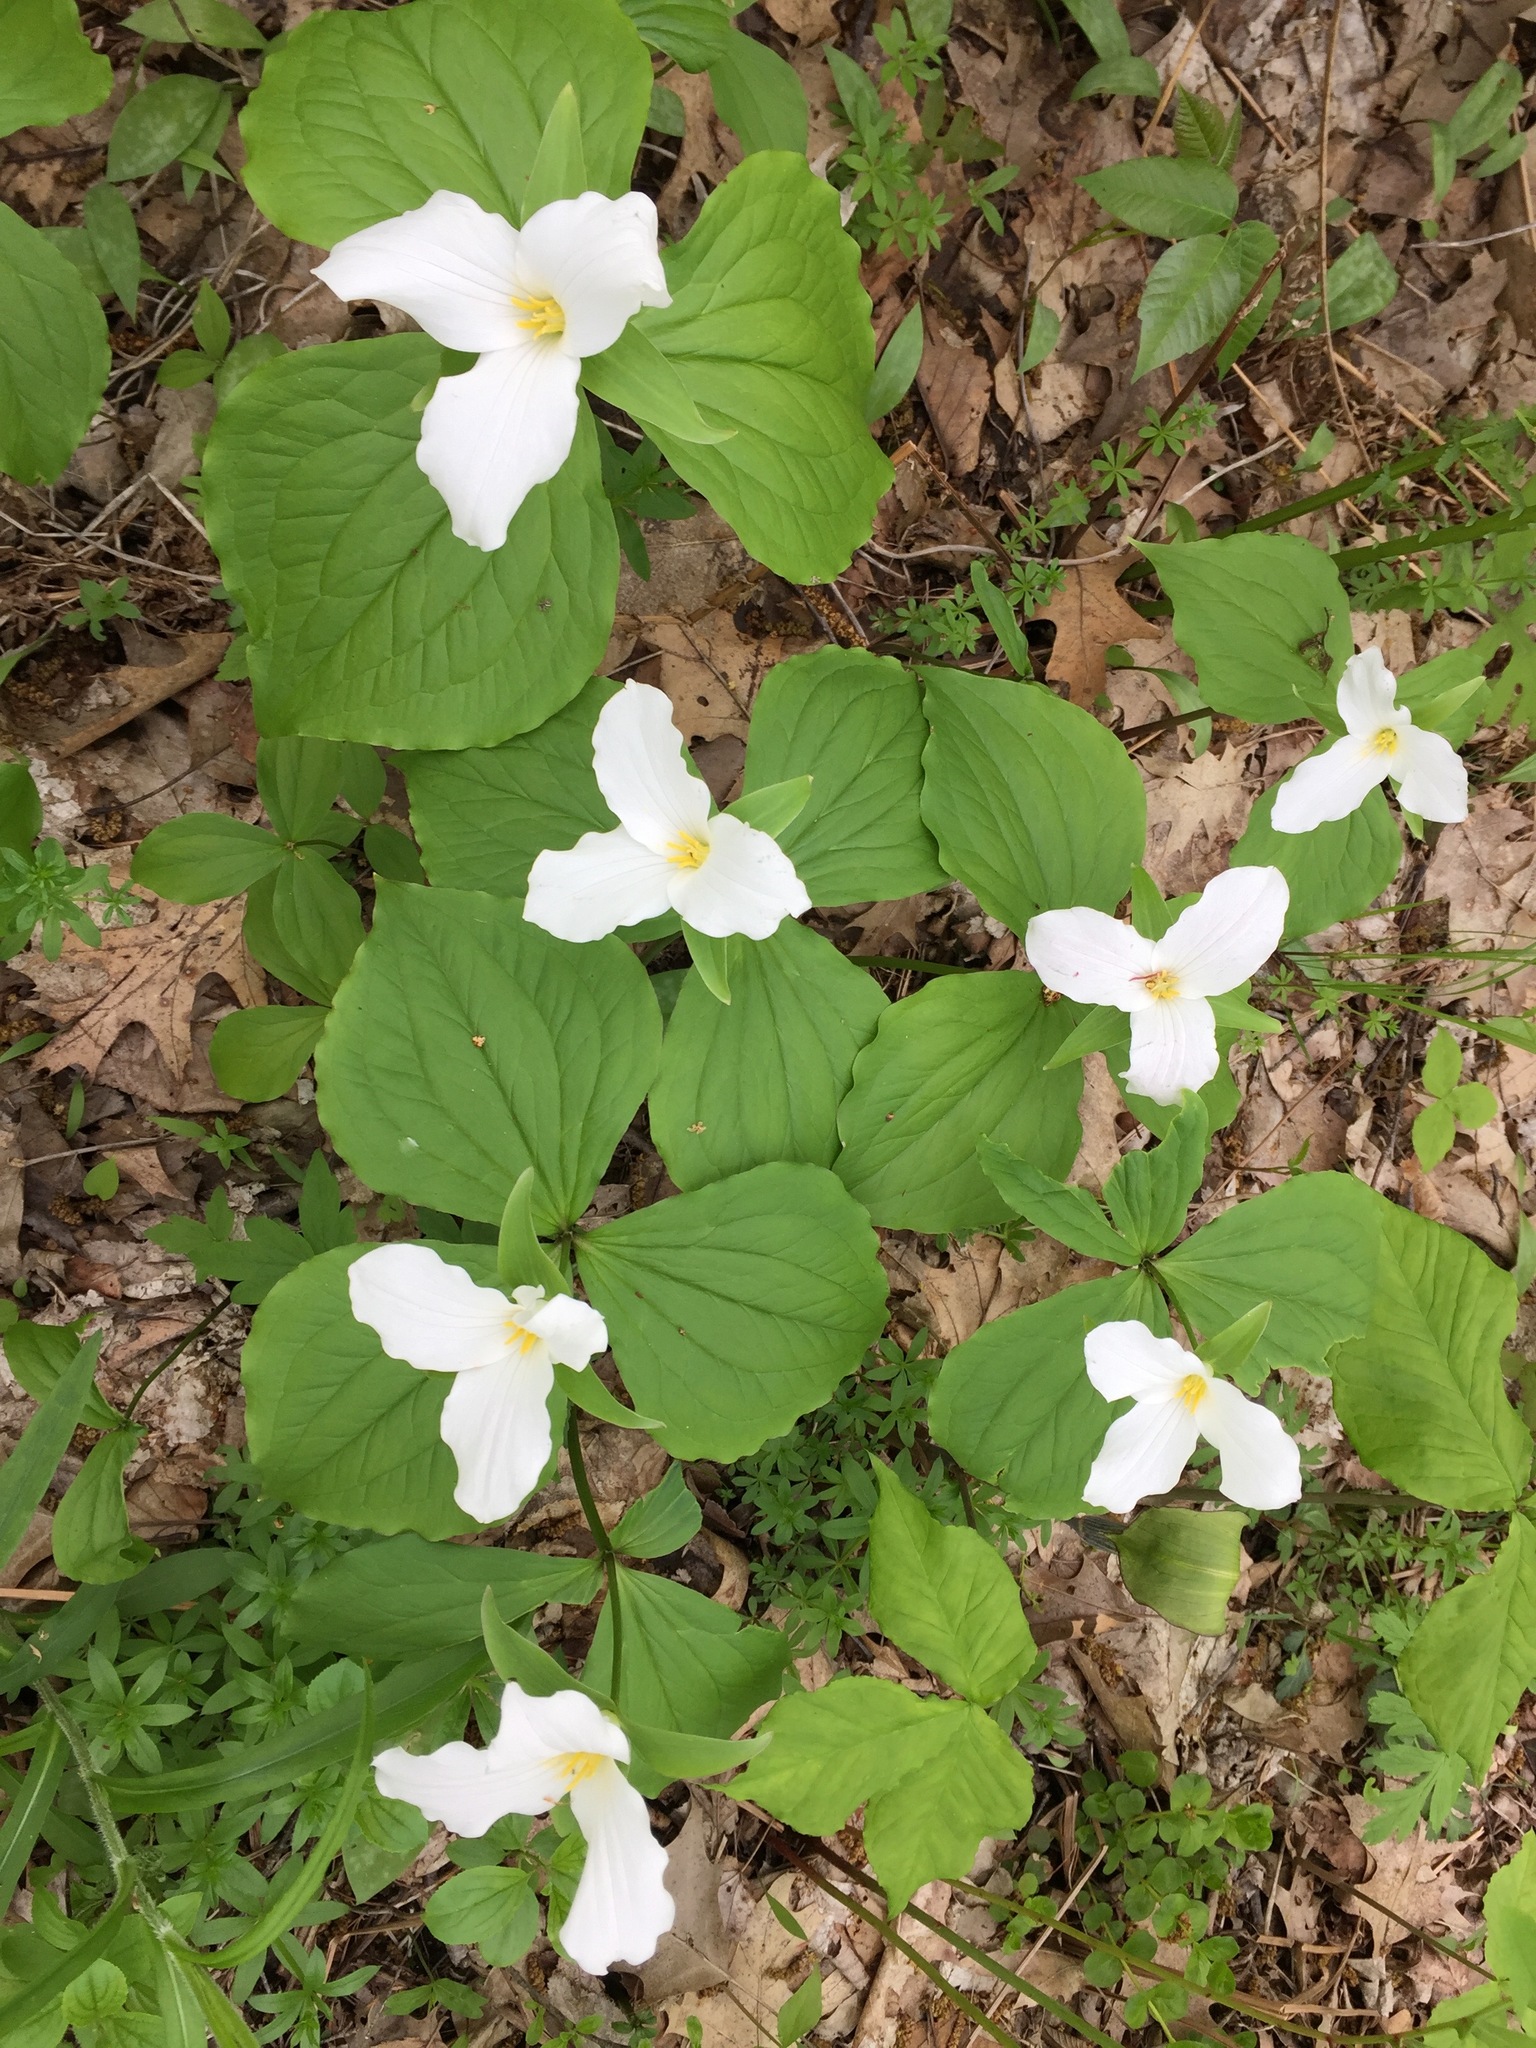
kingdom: Plantae
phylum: Tracheophyta
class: Liliopsida
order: Liliales
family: Melanthiaceae
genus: Trillium
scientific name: Trillium grandiflorum
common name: Great white trillium
